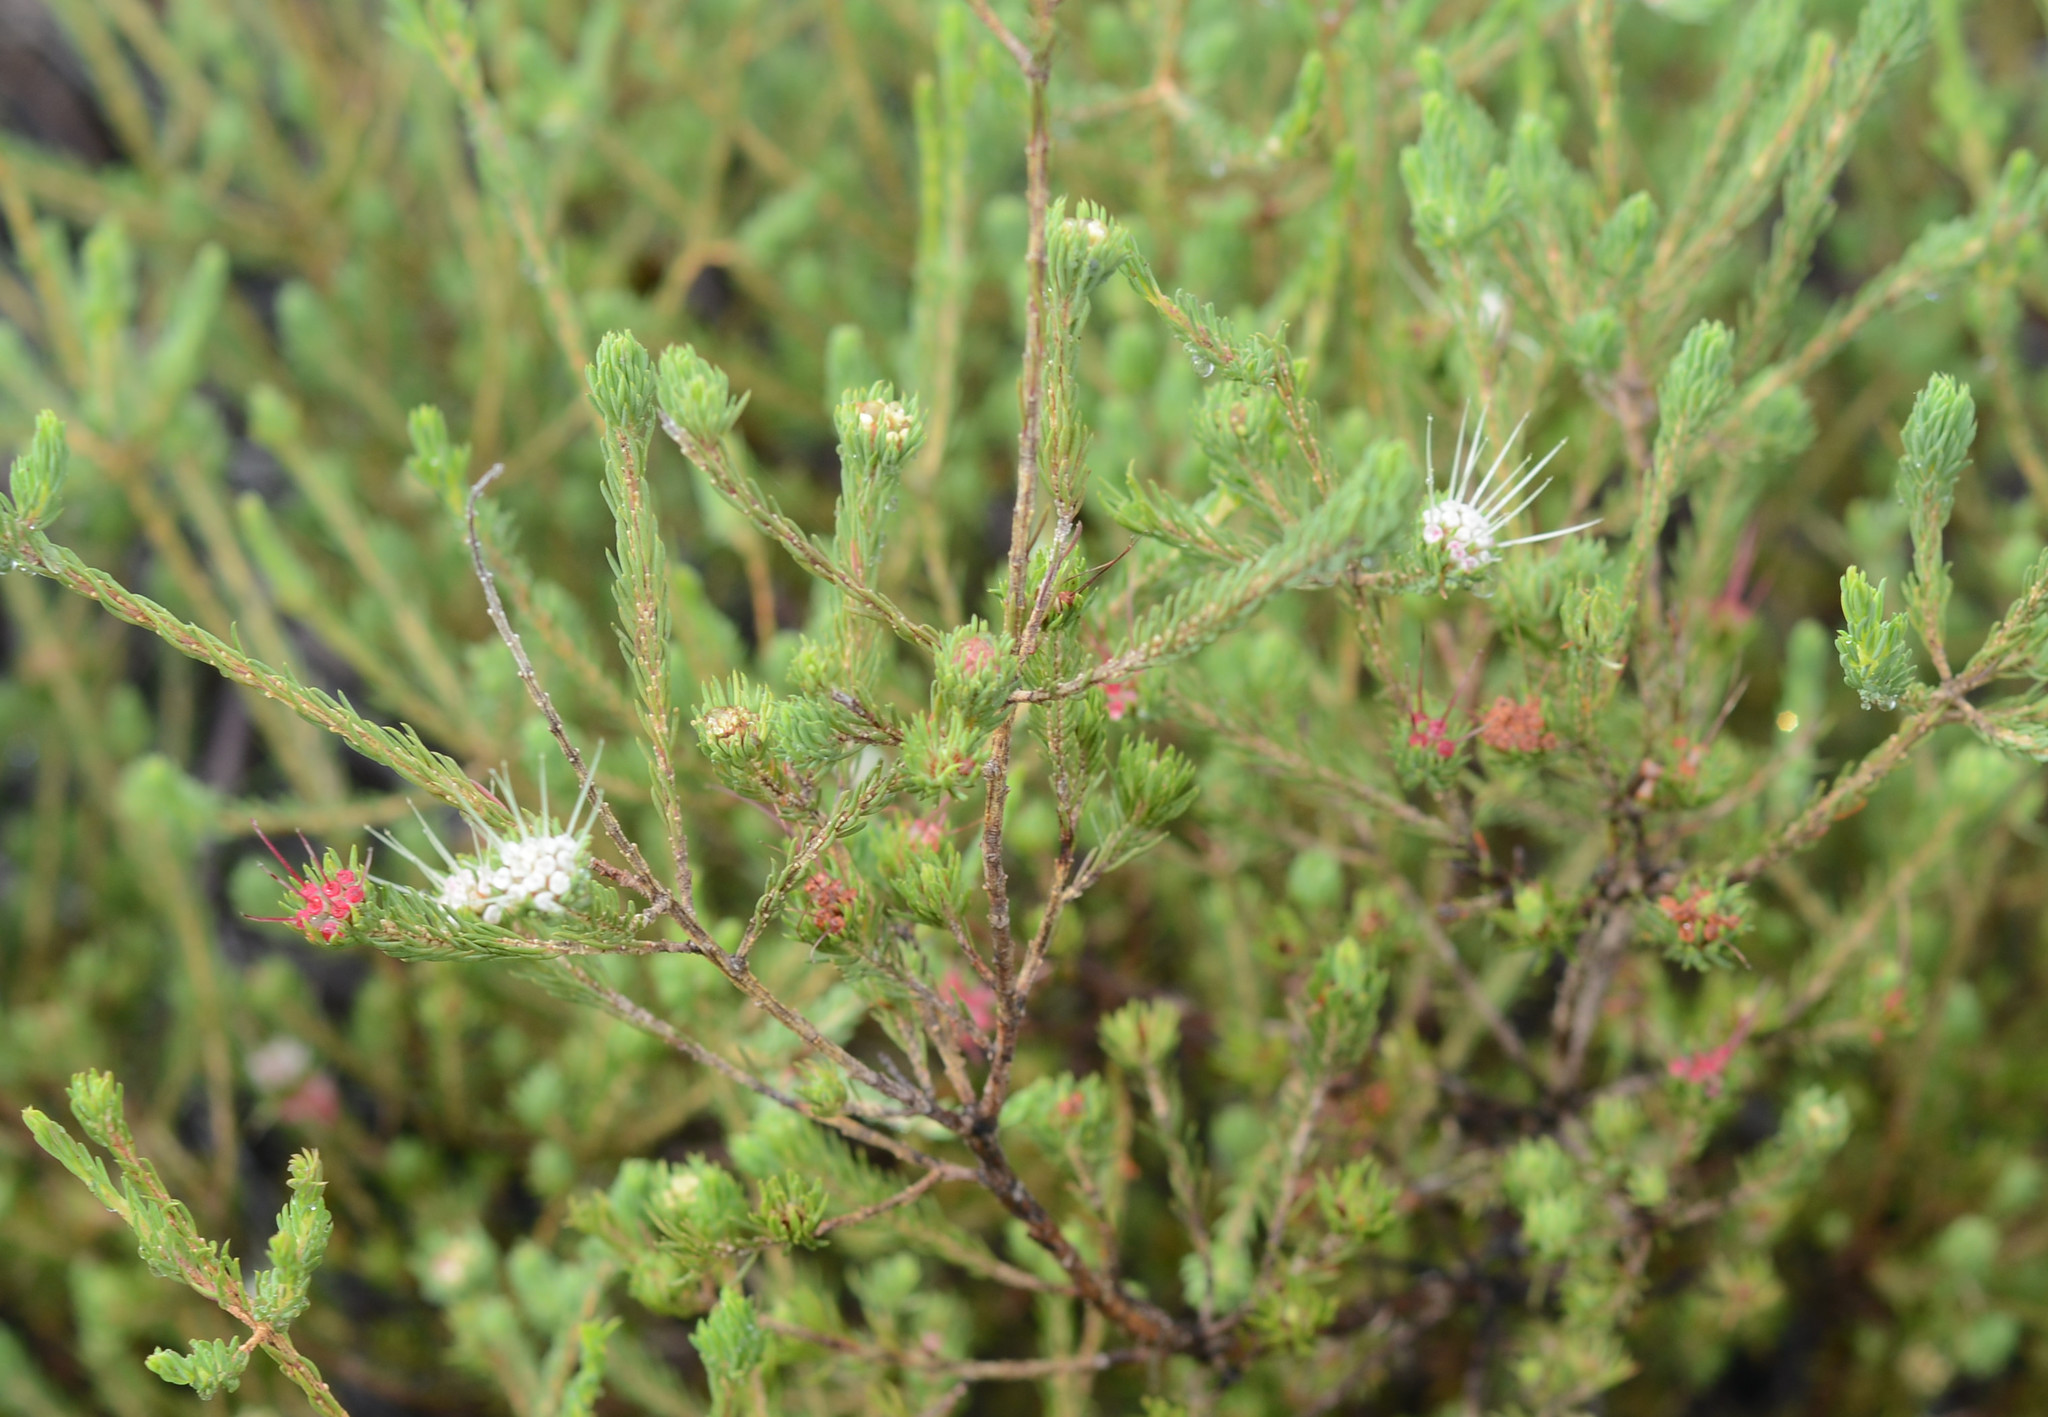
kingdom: Plantae
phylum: Tracheophyta
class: Magnoliopsida
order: Myrtales
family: Myrtaceae
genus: Darwinia
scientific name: Darwinia fascicularis
